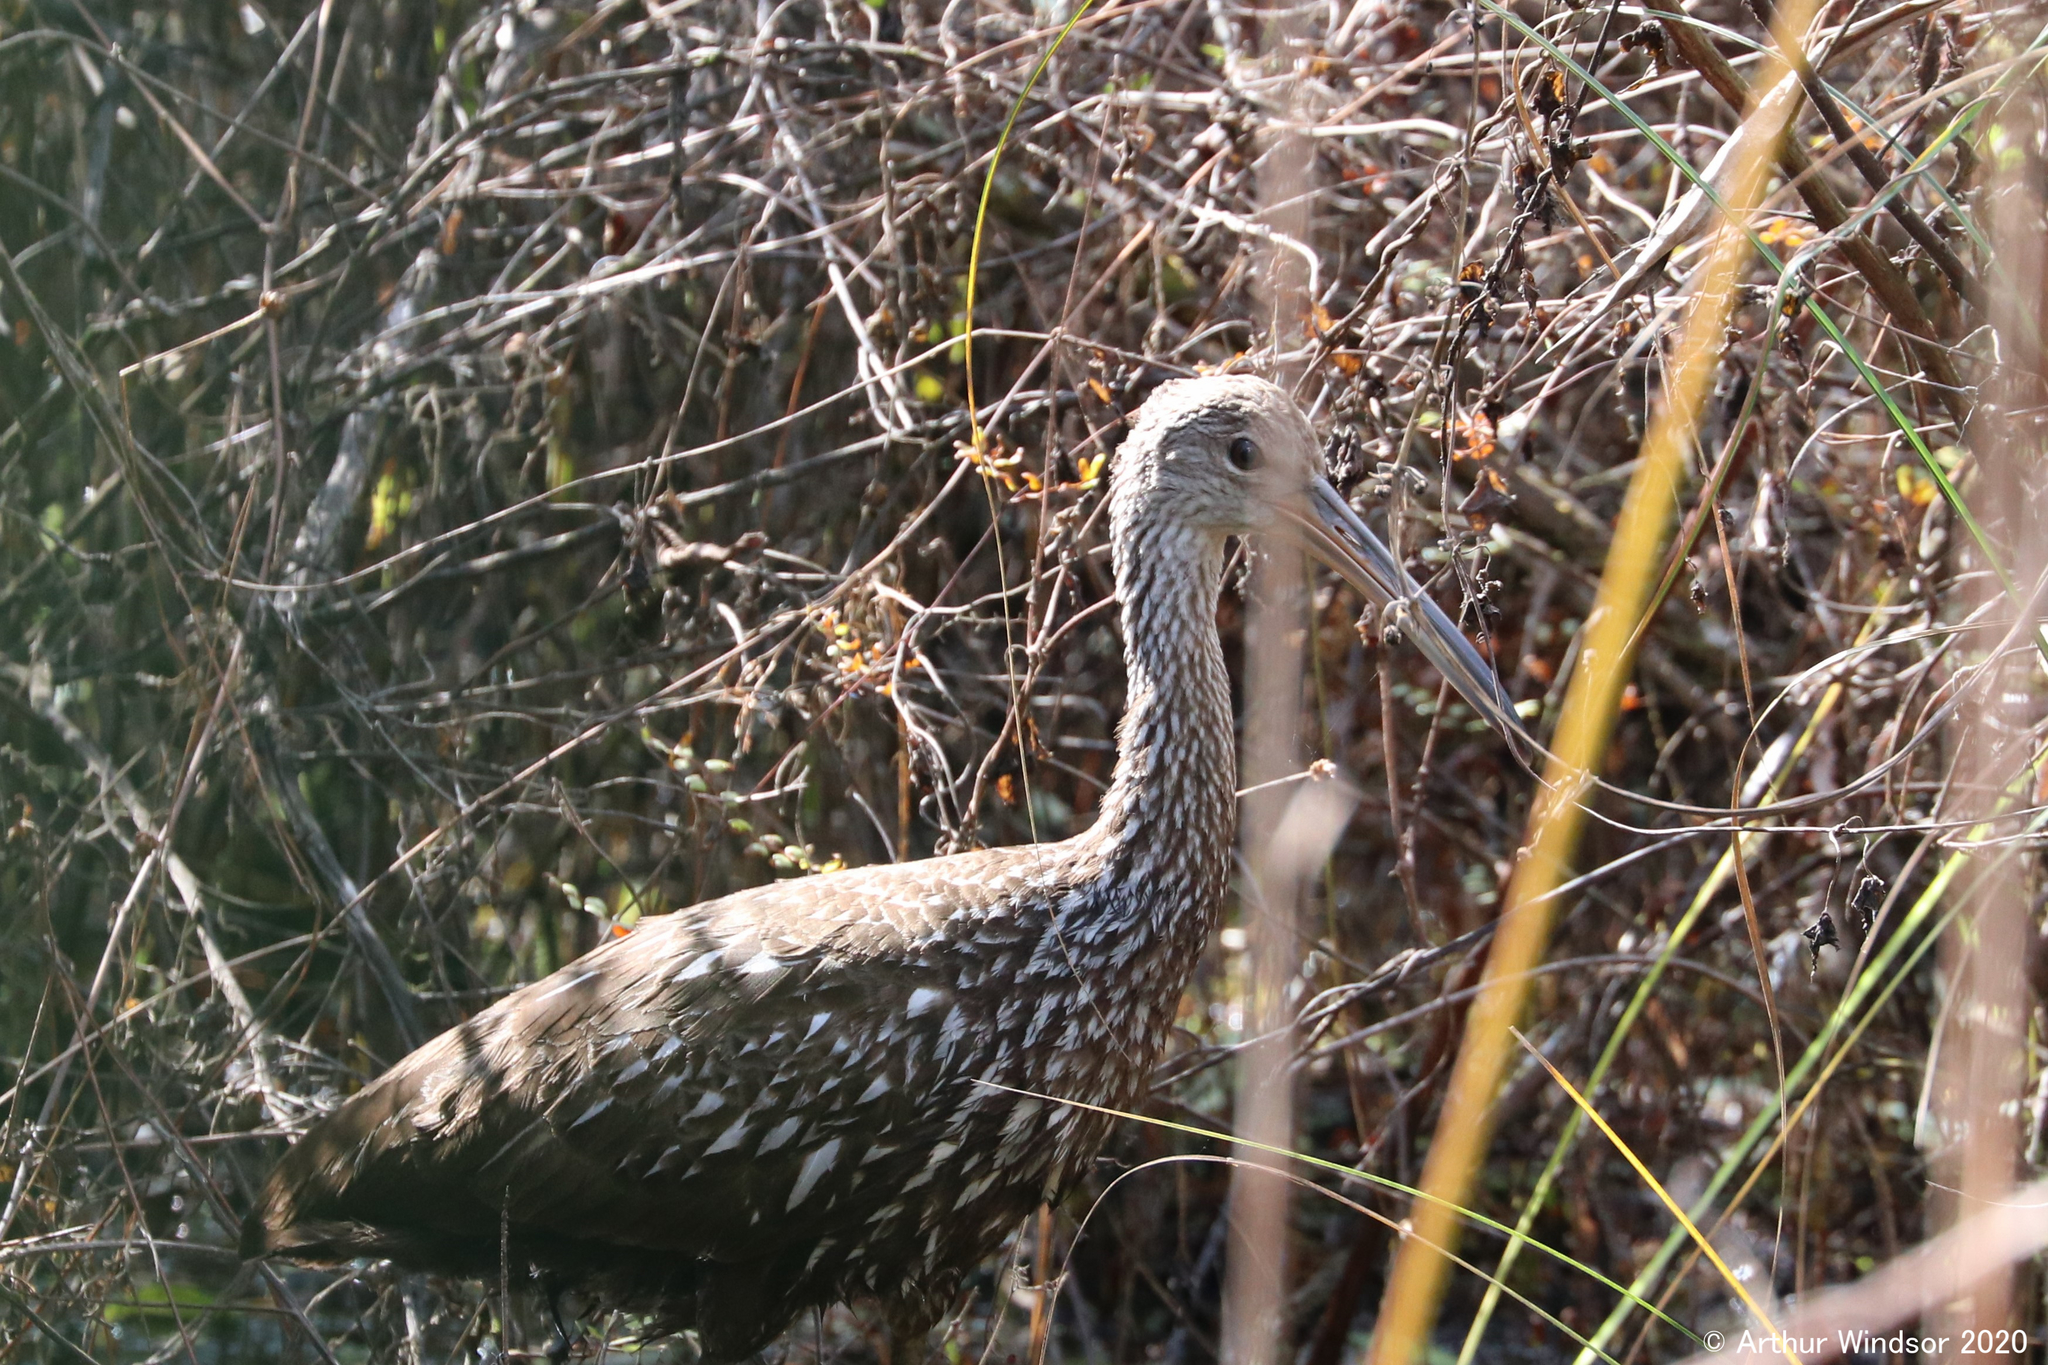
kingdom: Animalia
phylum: Chordata
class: Aves
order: Gruiformes
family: Aramidae
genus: Aramus
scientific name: Aramus guarauna
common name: Limpkin
